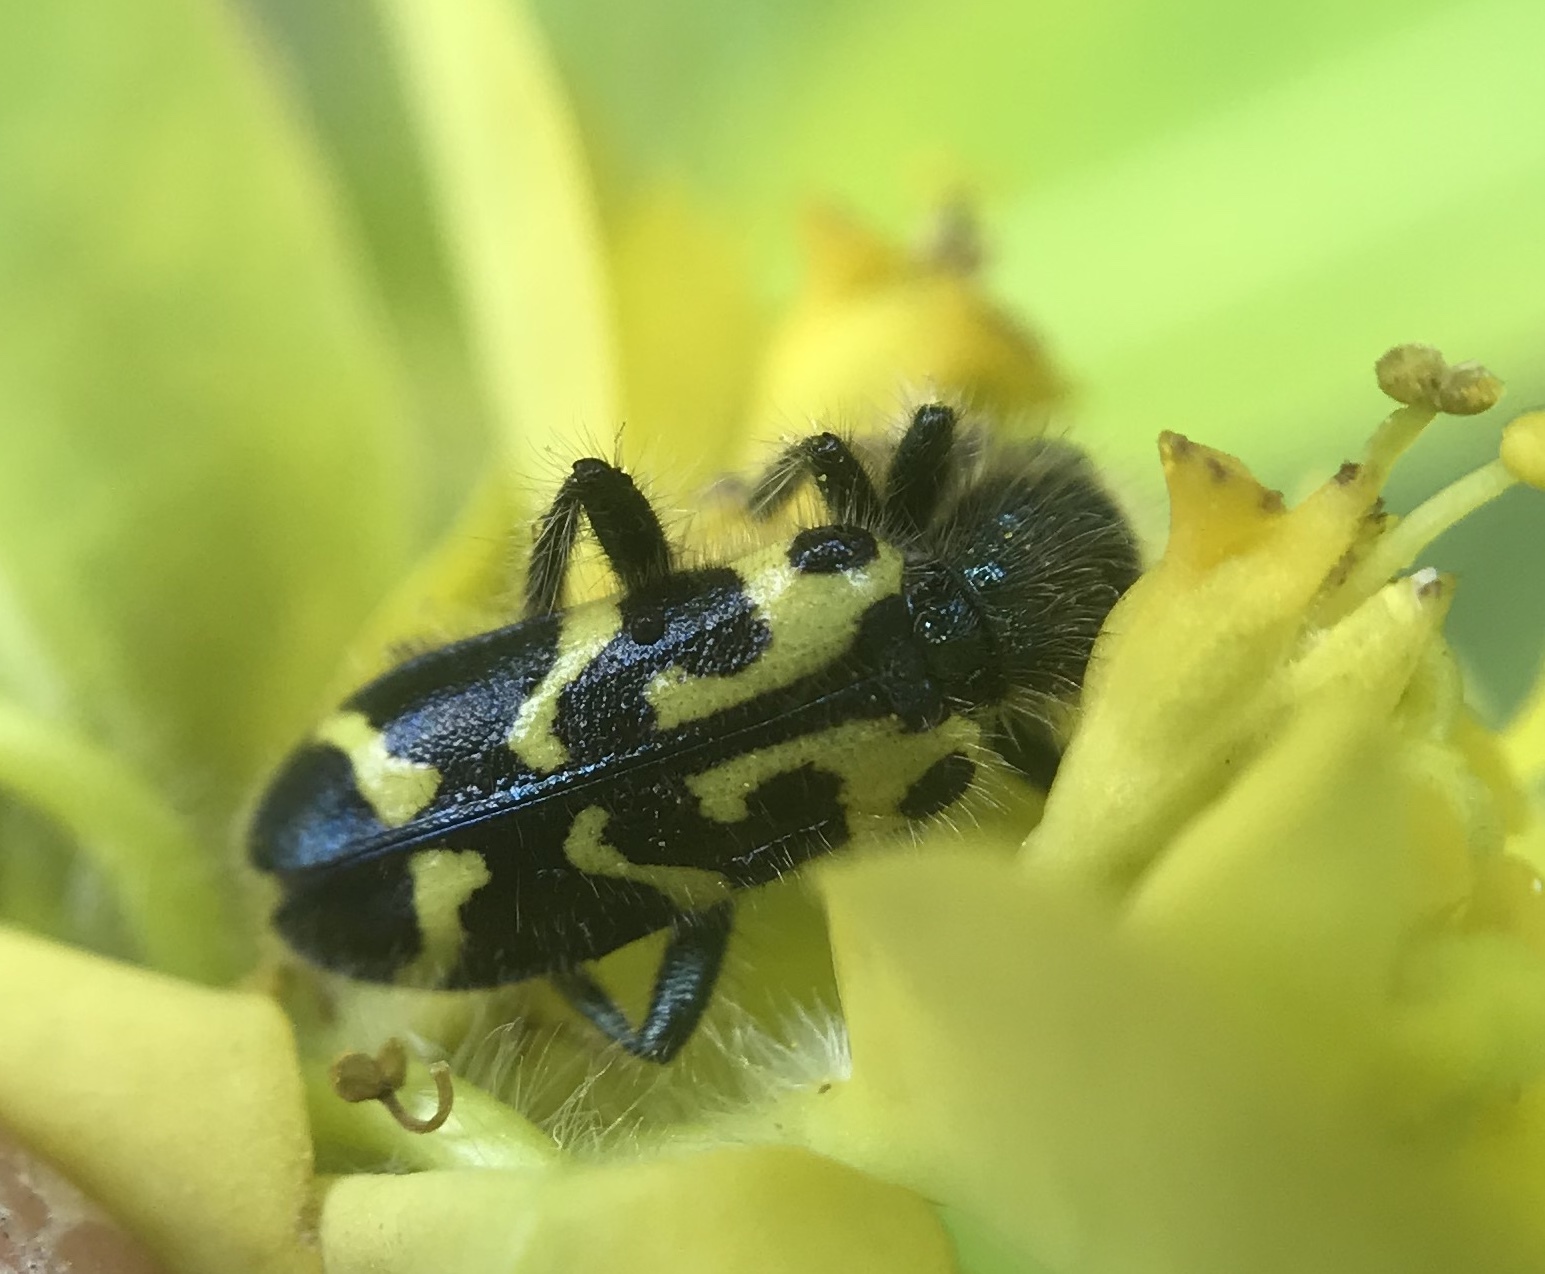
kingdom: Animalia
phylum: Arthropoda
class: Insecta
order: Coleoptera
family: Cleridae
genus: Trichodes
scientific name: Trichodes ornatus
